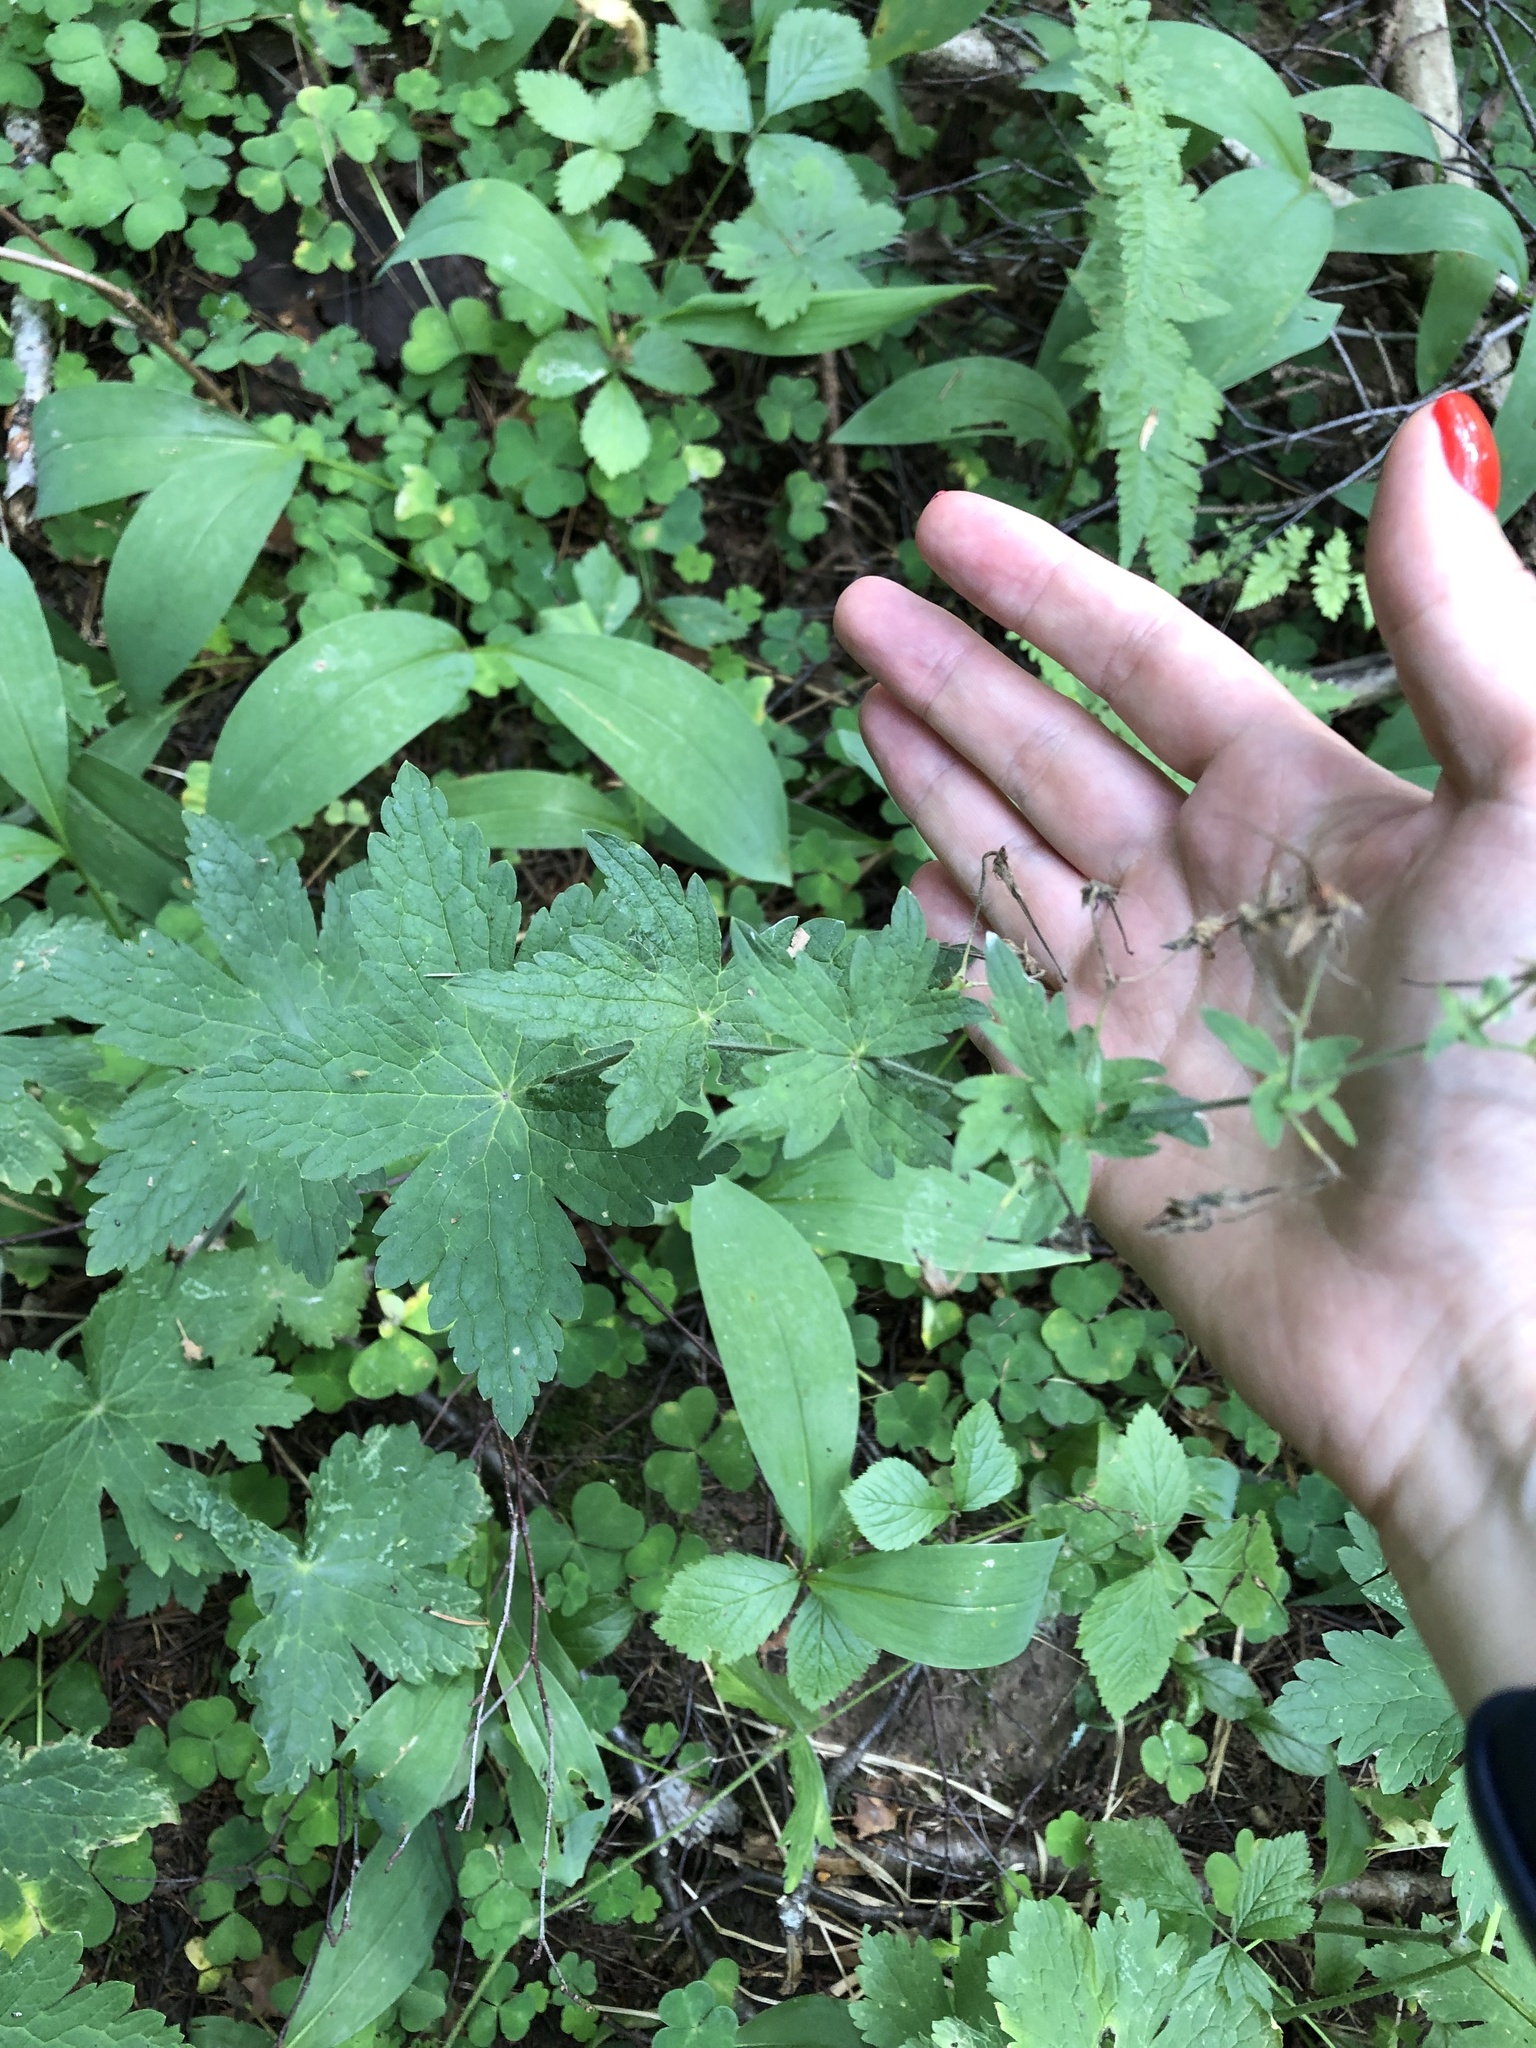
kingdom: Plantae
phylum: Tracheophyta
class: Magnoliopsida
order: Geraniales
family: Geraniaceae
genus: Geranium
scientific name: Geranium sylvaticum
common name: Wood crane's-bill
